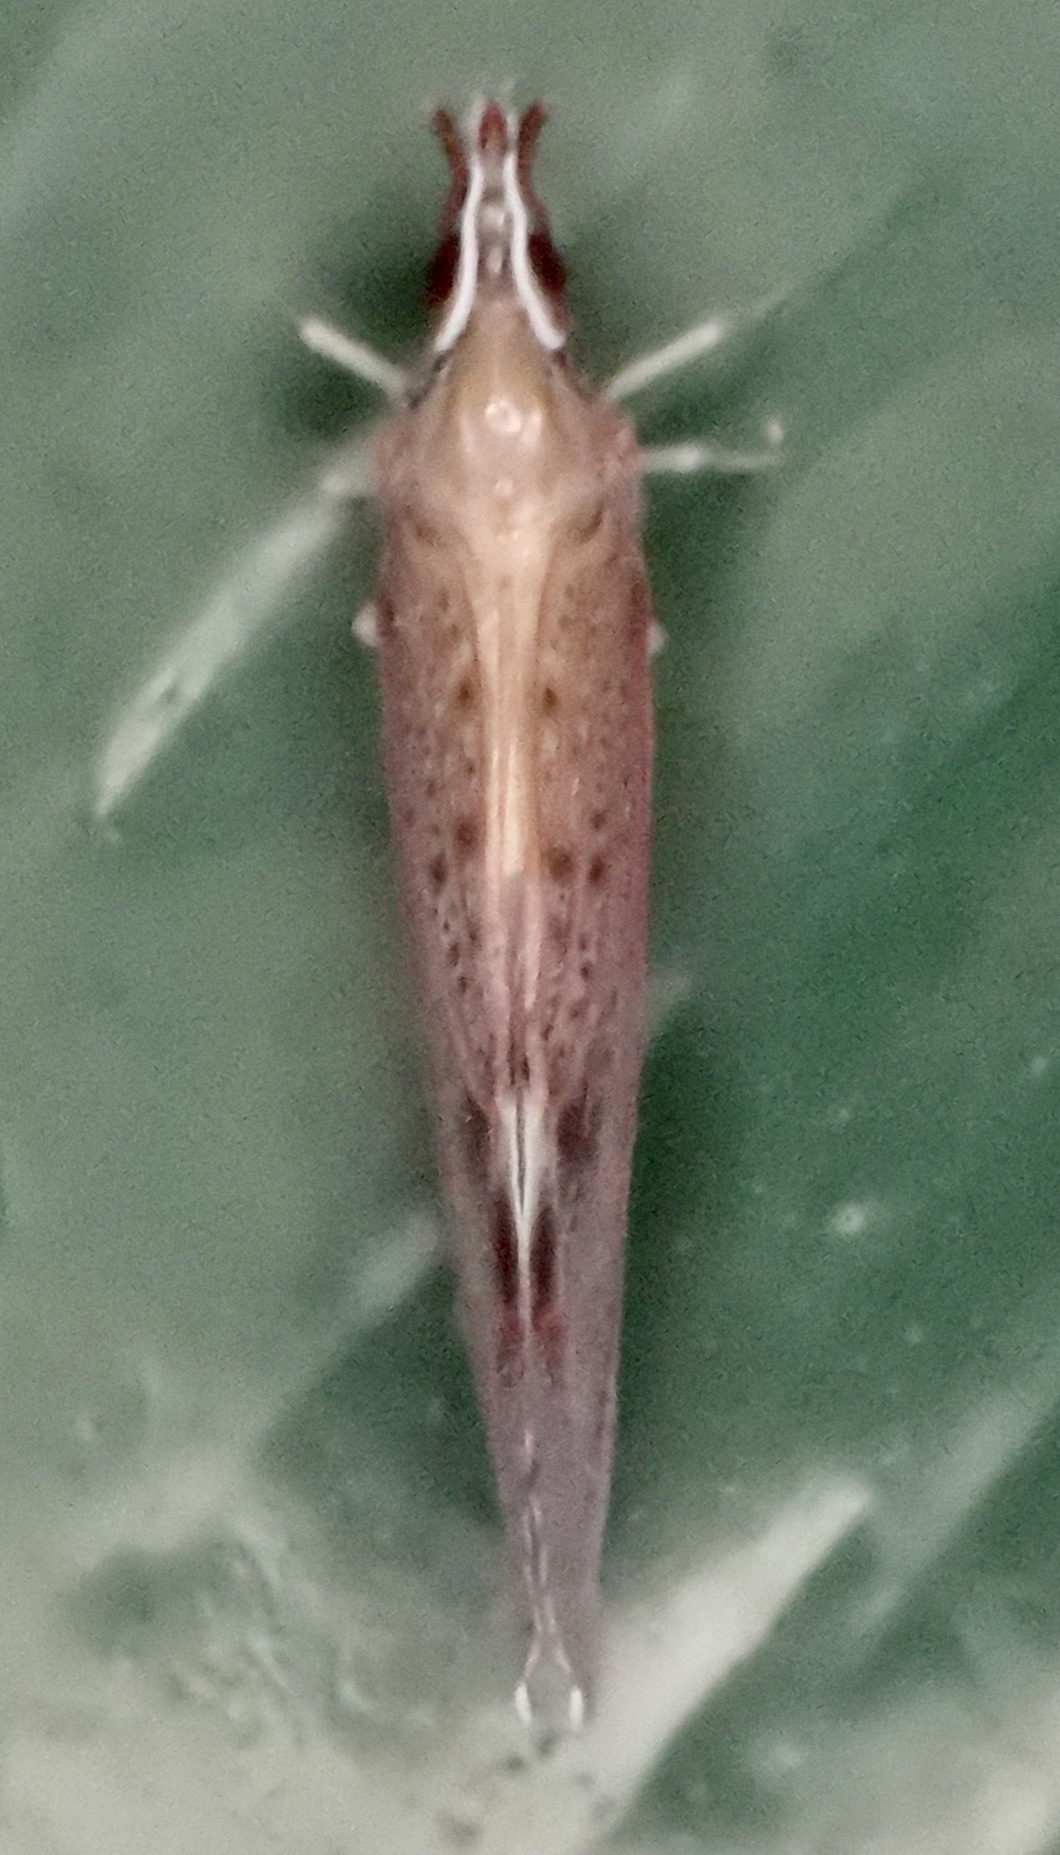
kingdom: Animalia
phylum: Arthropoda
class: Insecta
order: Hemiptera
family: Derbidae
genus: Apache
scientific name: Apache degeeri
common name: Red-fanned planthopper
